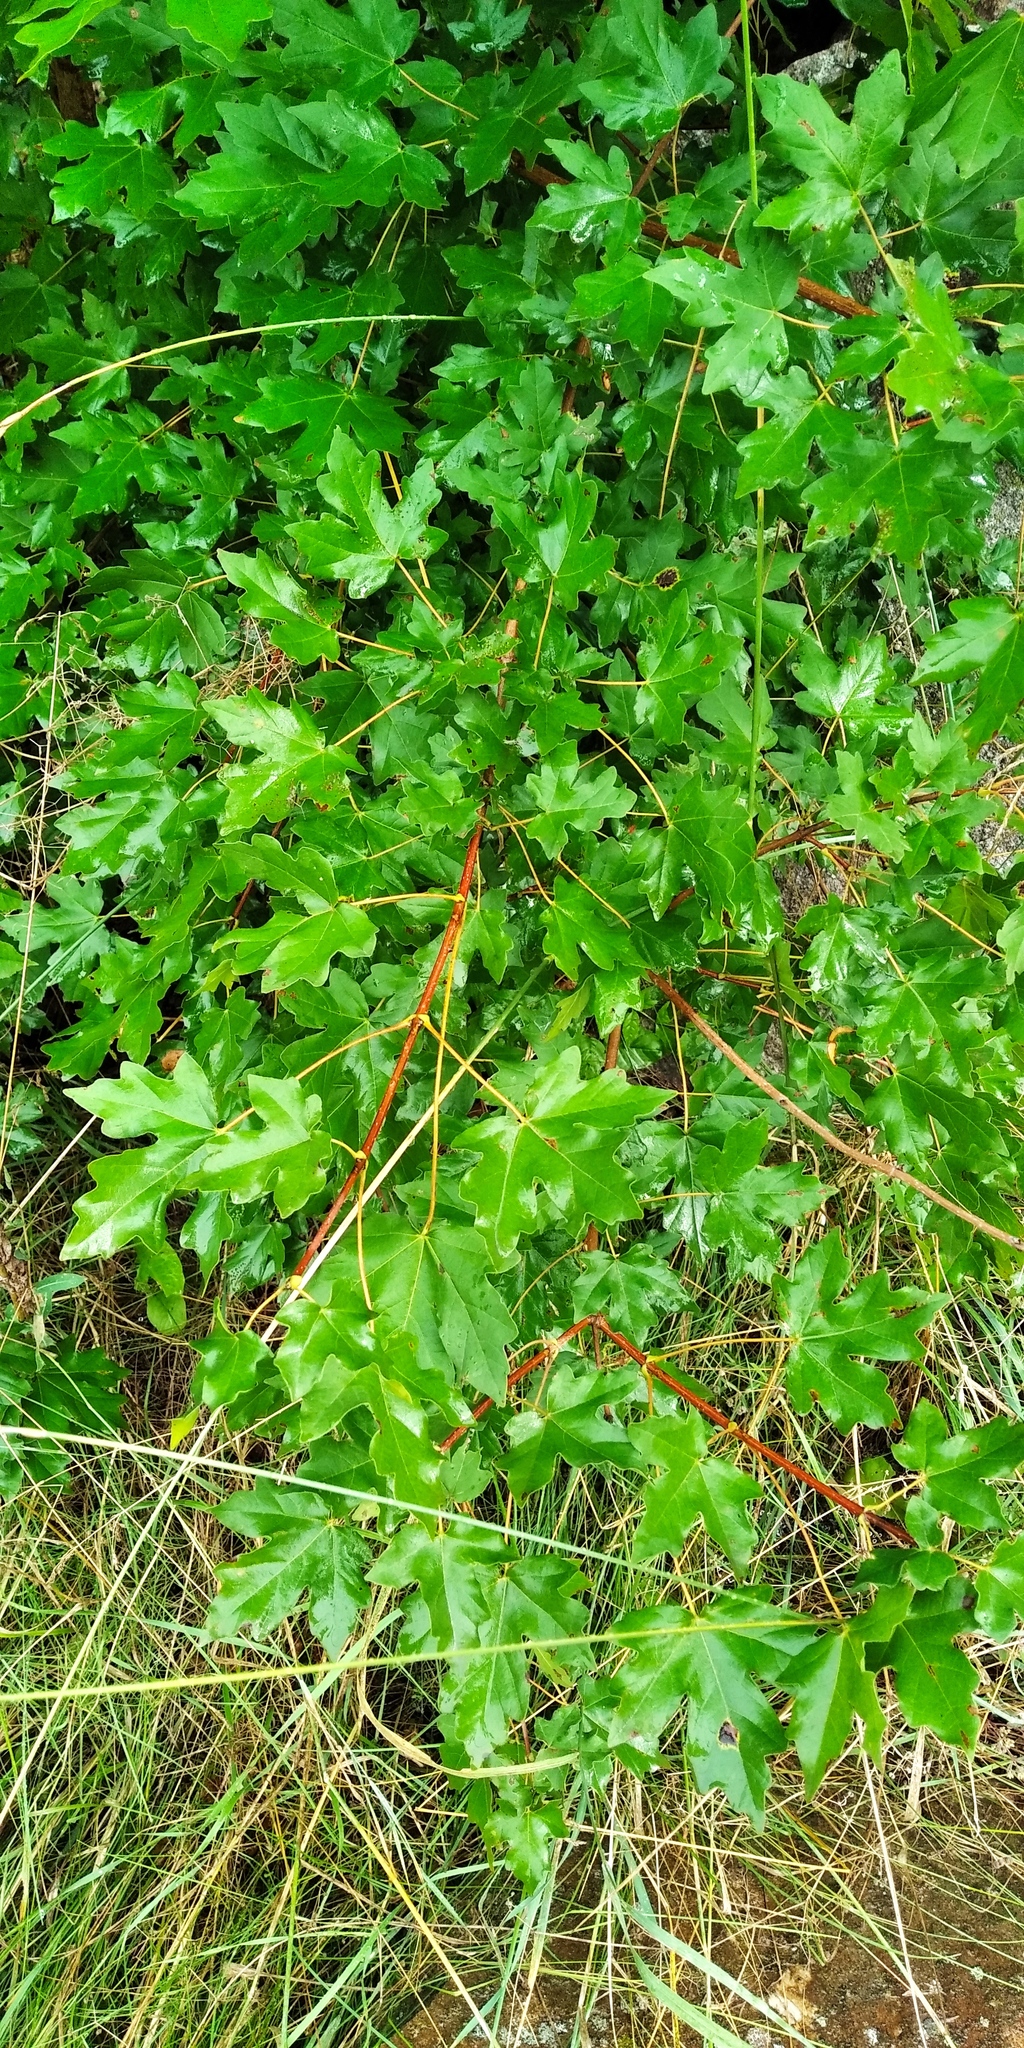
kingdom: Plantae
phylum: Tracheophyta
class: Magnoliopsida
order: Sapindales
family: Sapindaceae
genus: Acer
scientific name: Acer campestre
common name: Field maple
